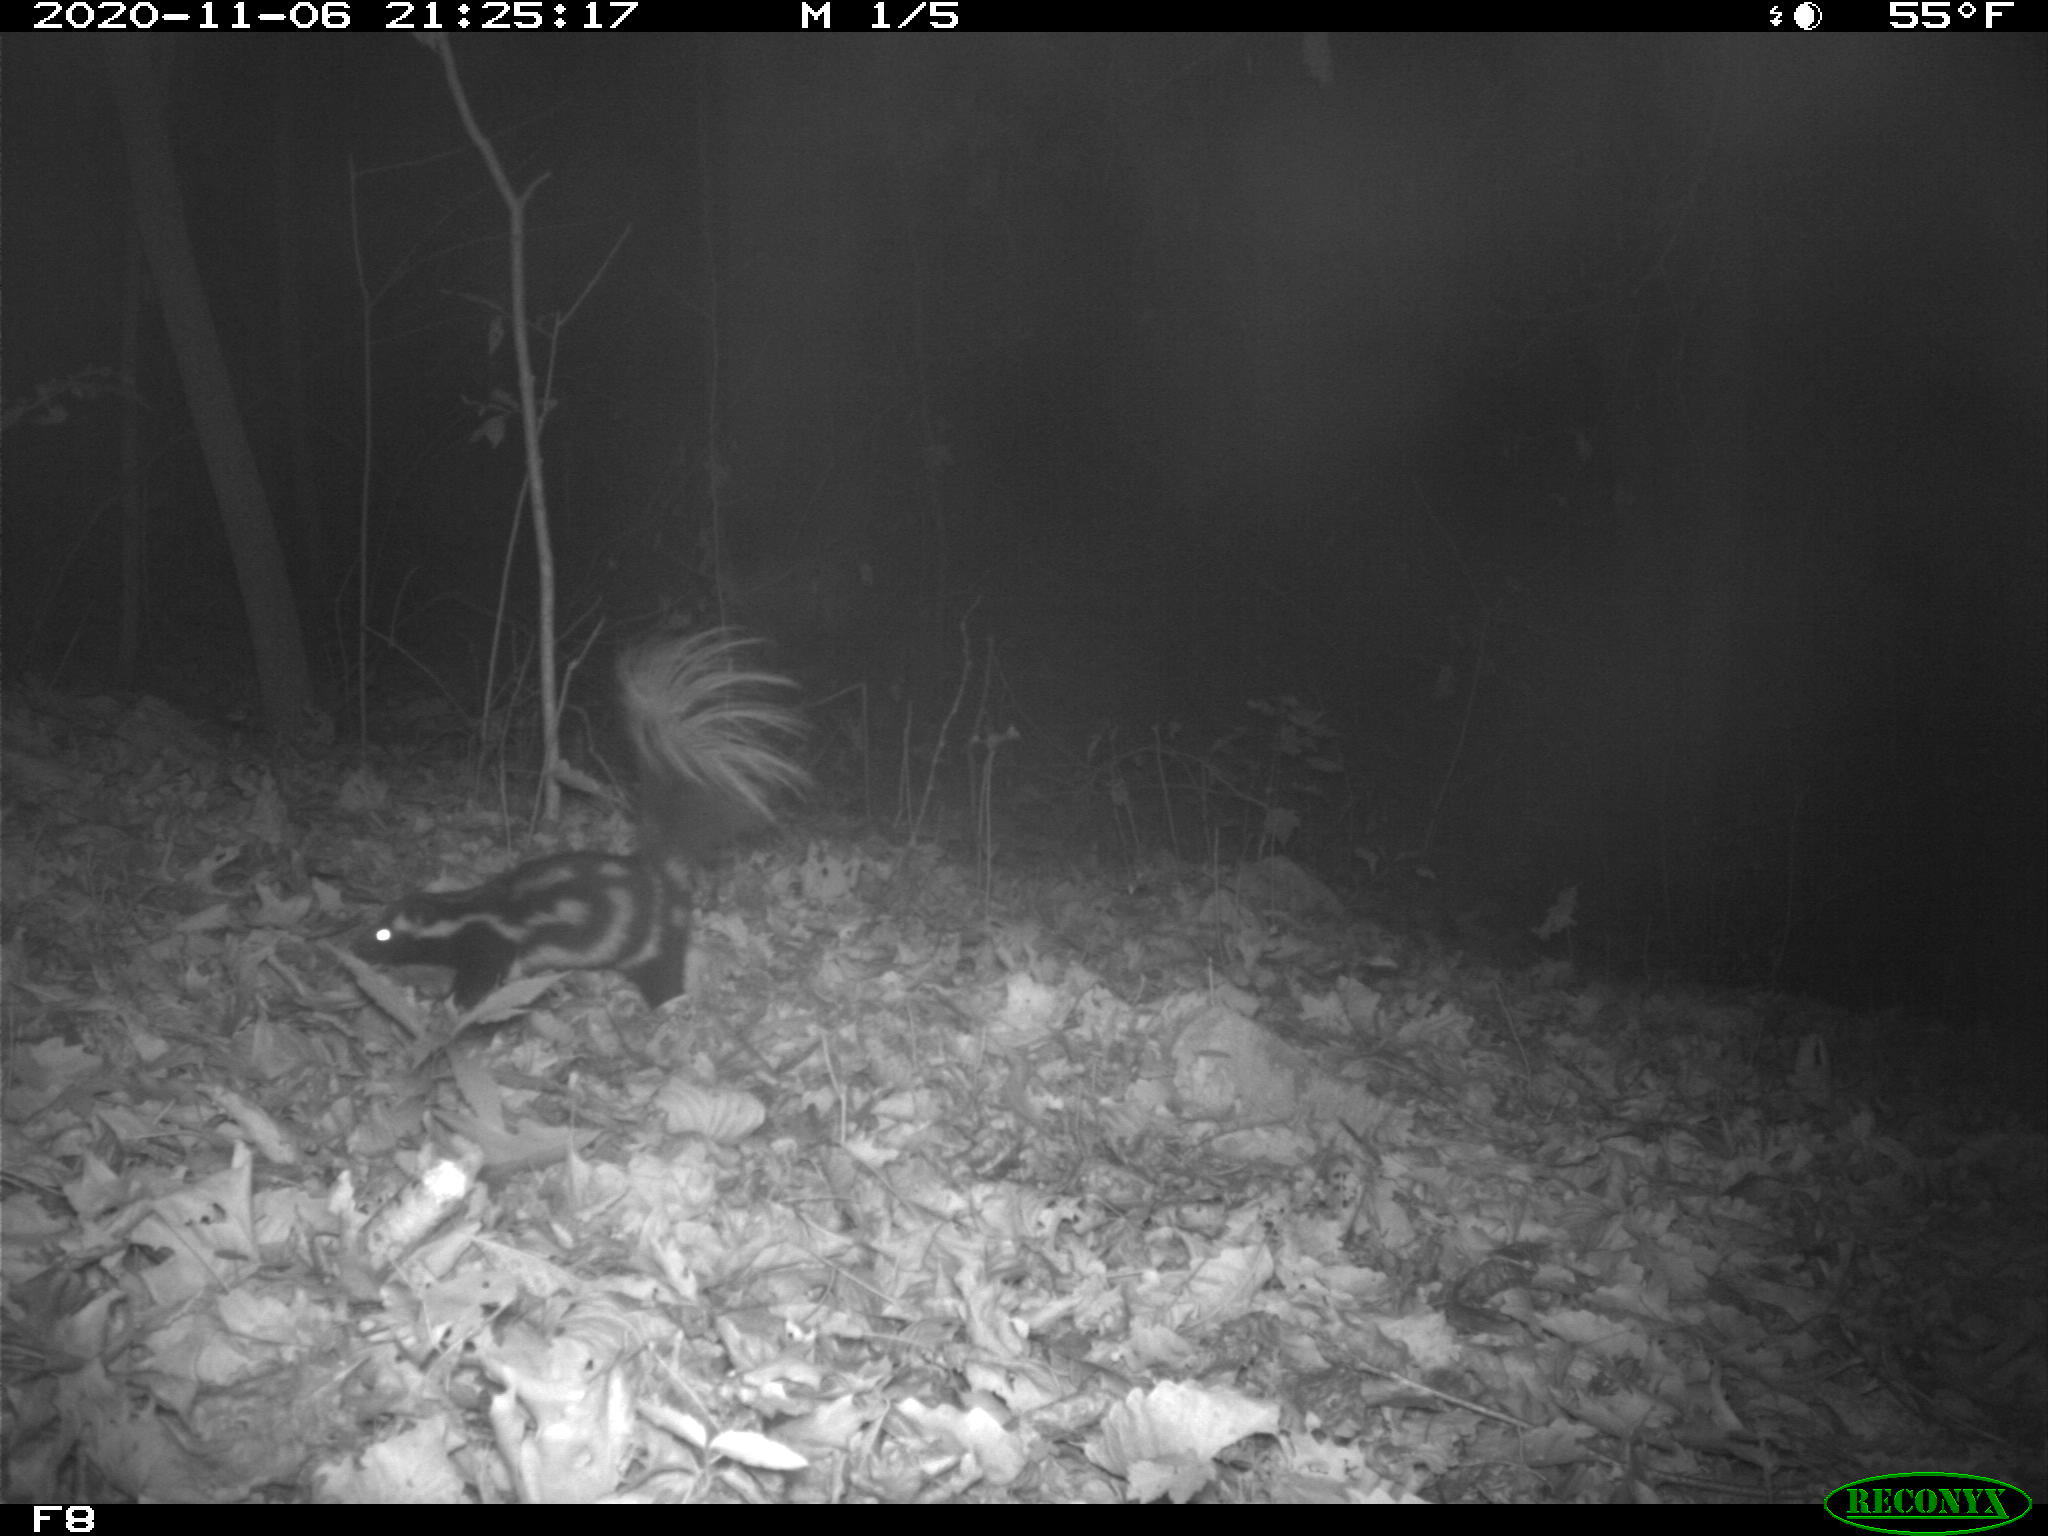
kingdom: Animalia
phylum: Chordata
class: Mammalia
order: Carnivora
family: Mephitidae
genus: Spilogale
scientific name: Spilogale putorius
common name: Eastern spotted skunk
